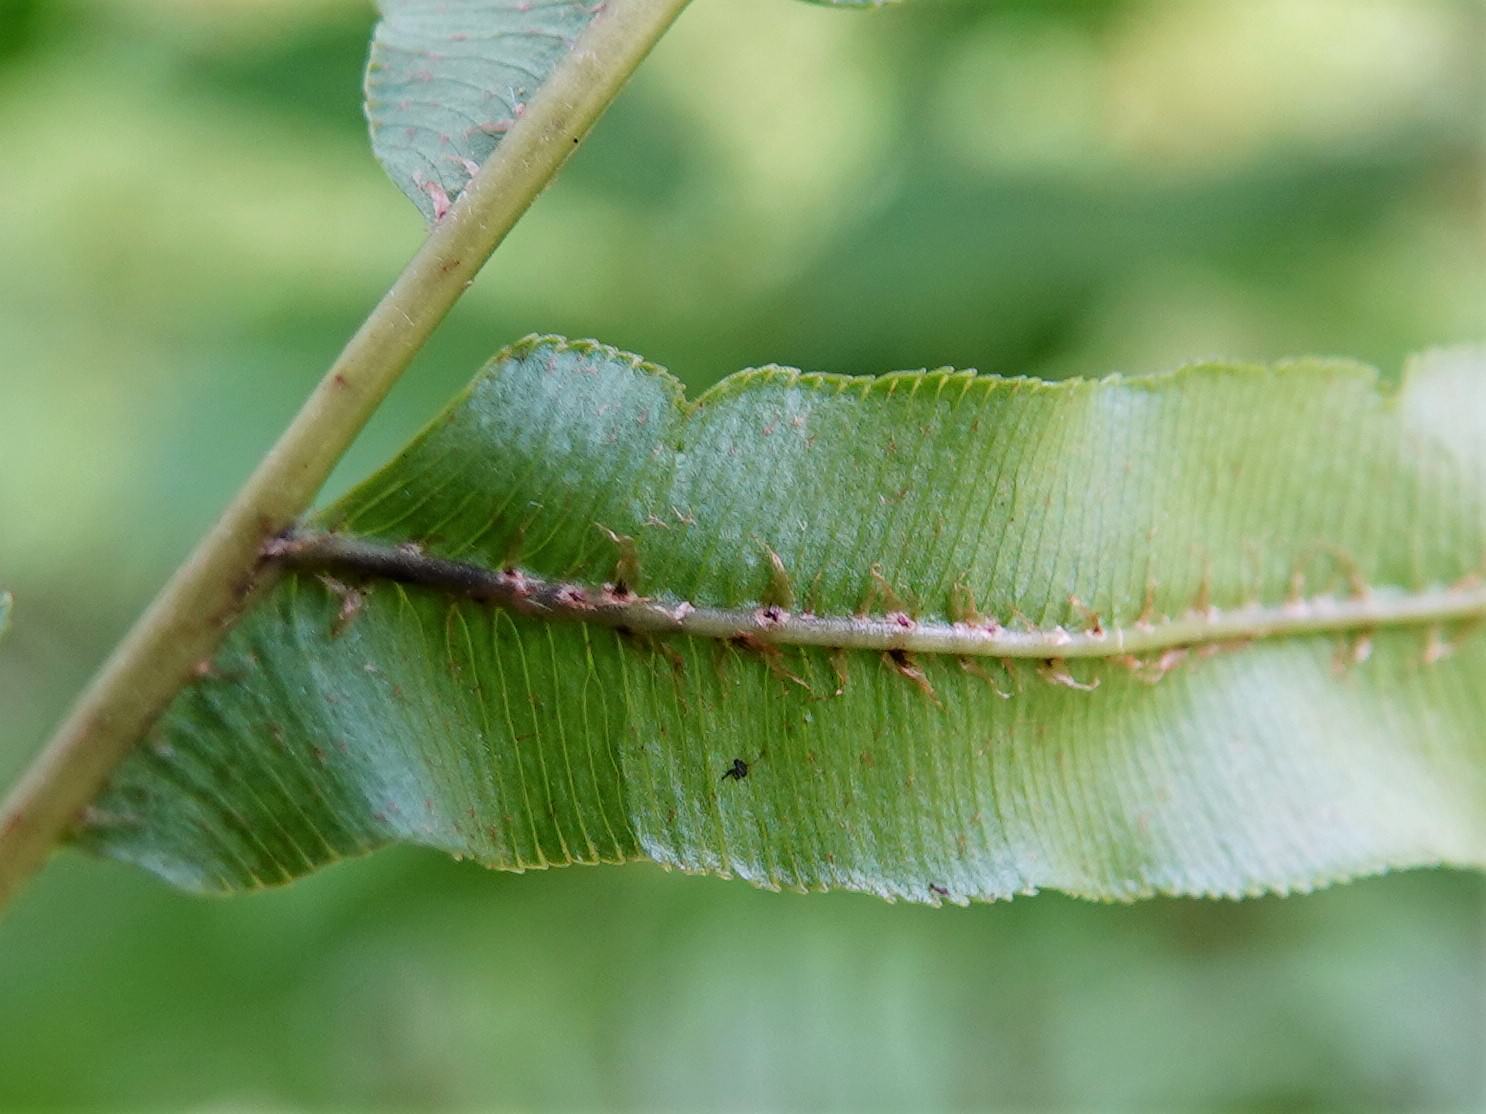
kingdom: Plantae
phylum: Tracheophyta
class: Polypodiopsida
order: Polypodiales
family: Blechnaceae
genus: Parablechnum
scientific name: Parablechnum novae-zelandiae
